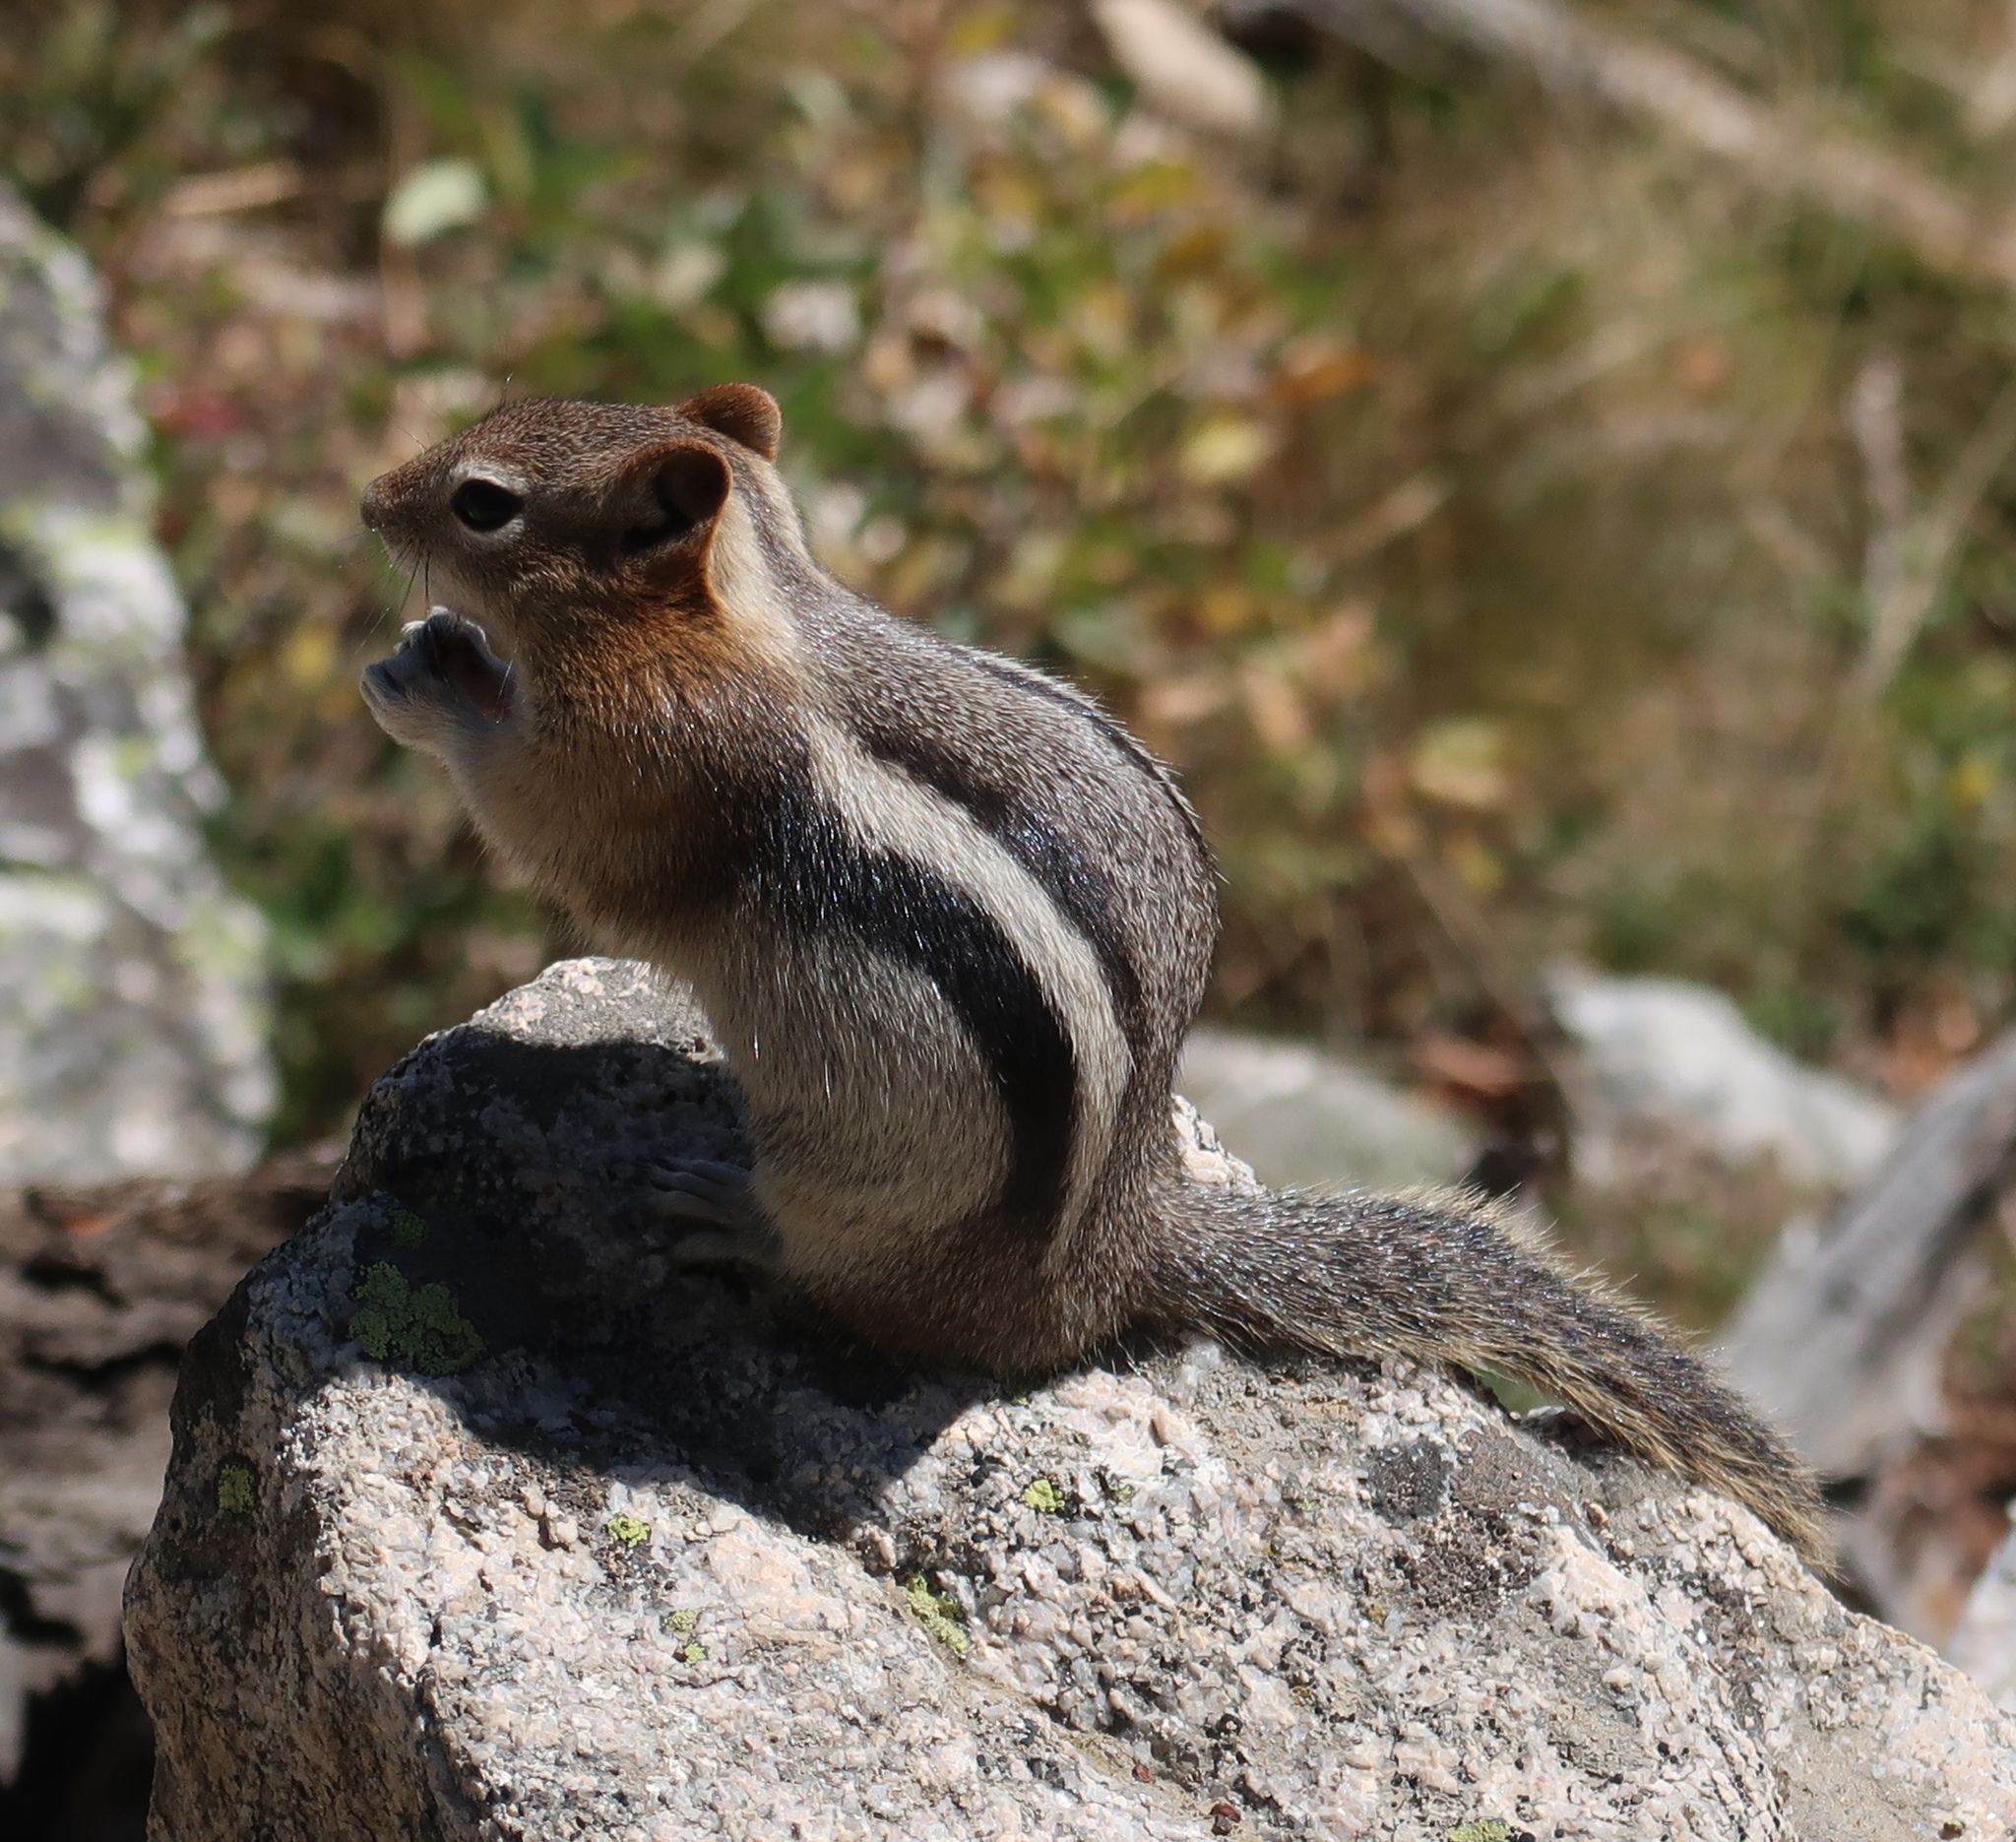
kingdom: Animalia
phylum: Chordata
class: Mammalia
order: Rodentia
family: Sciuridae
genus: Callospermophilus
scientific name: Callospermophilus lateralis
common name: Golden-mantled ground squirrel
